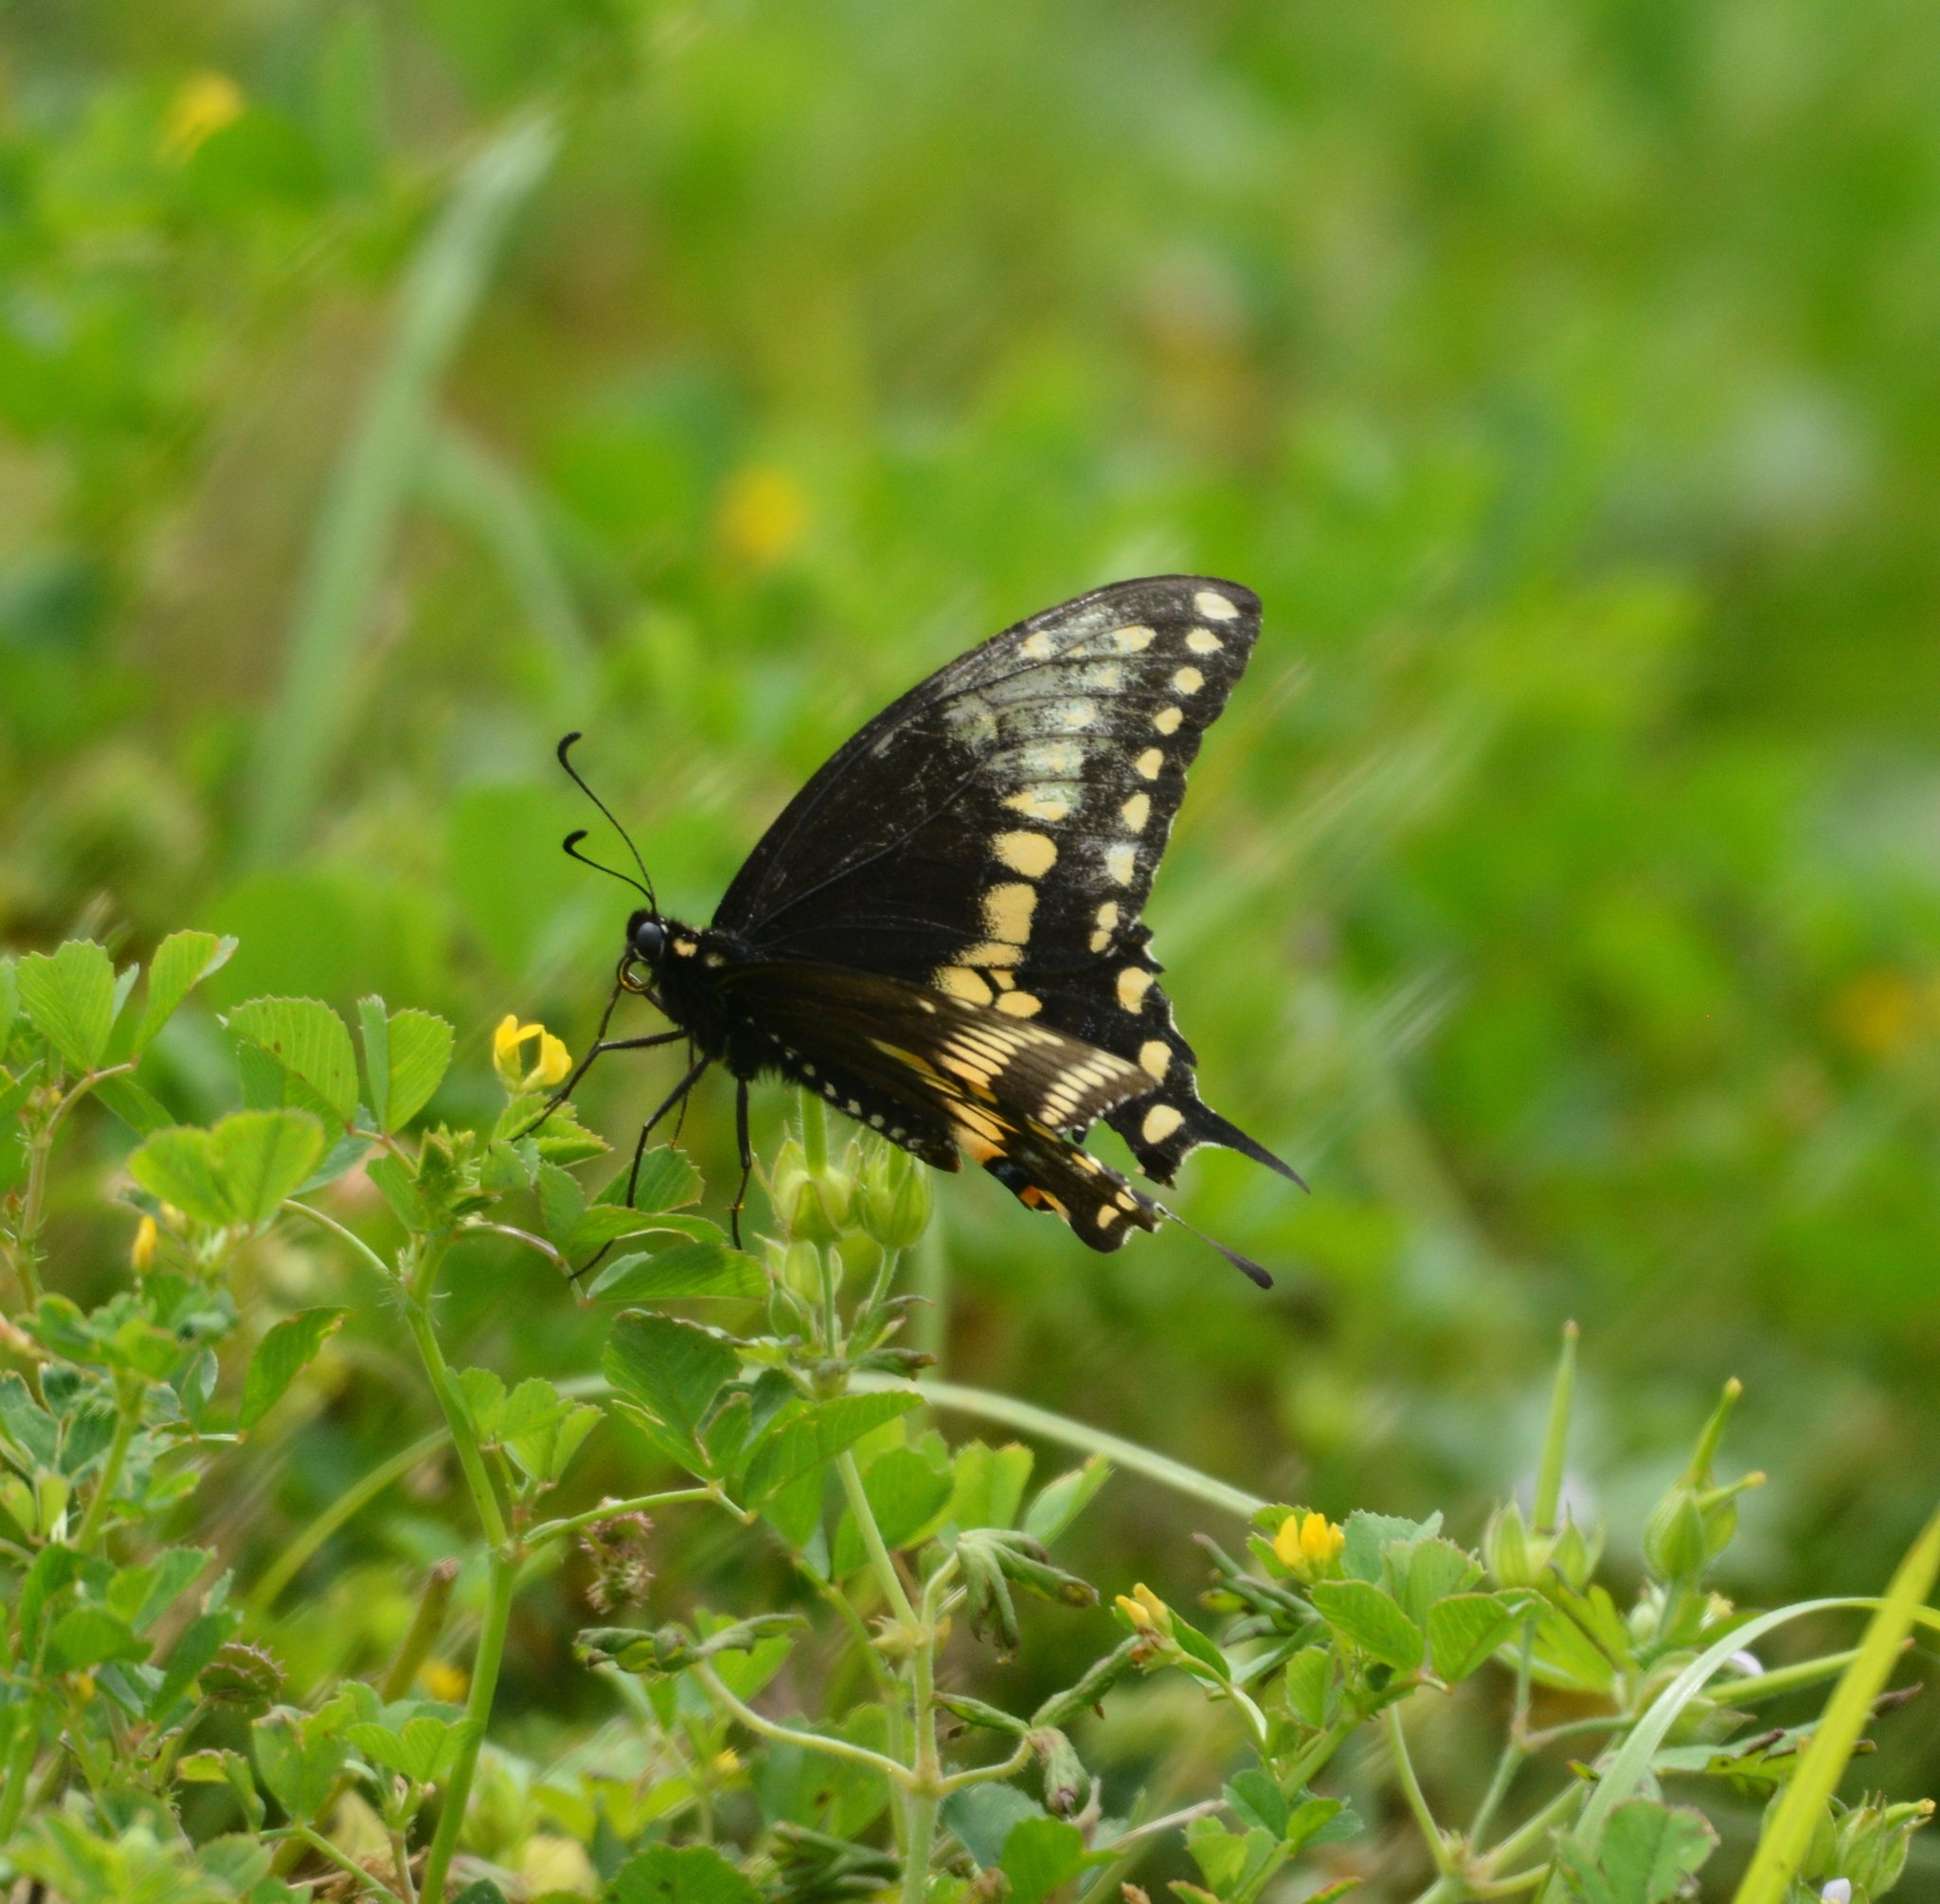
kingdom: Animalia
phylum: Arthropoda
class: Insecta
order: Lepidoptera
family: Papilionidae
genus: Papilio
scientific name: Papilio polyxenes
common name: Black swallowtail
